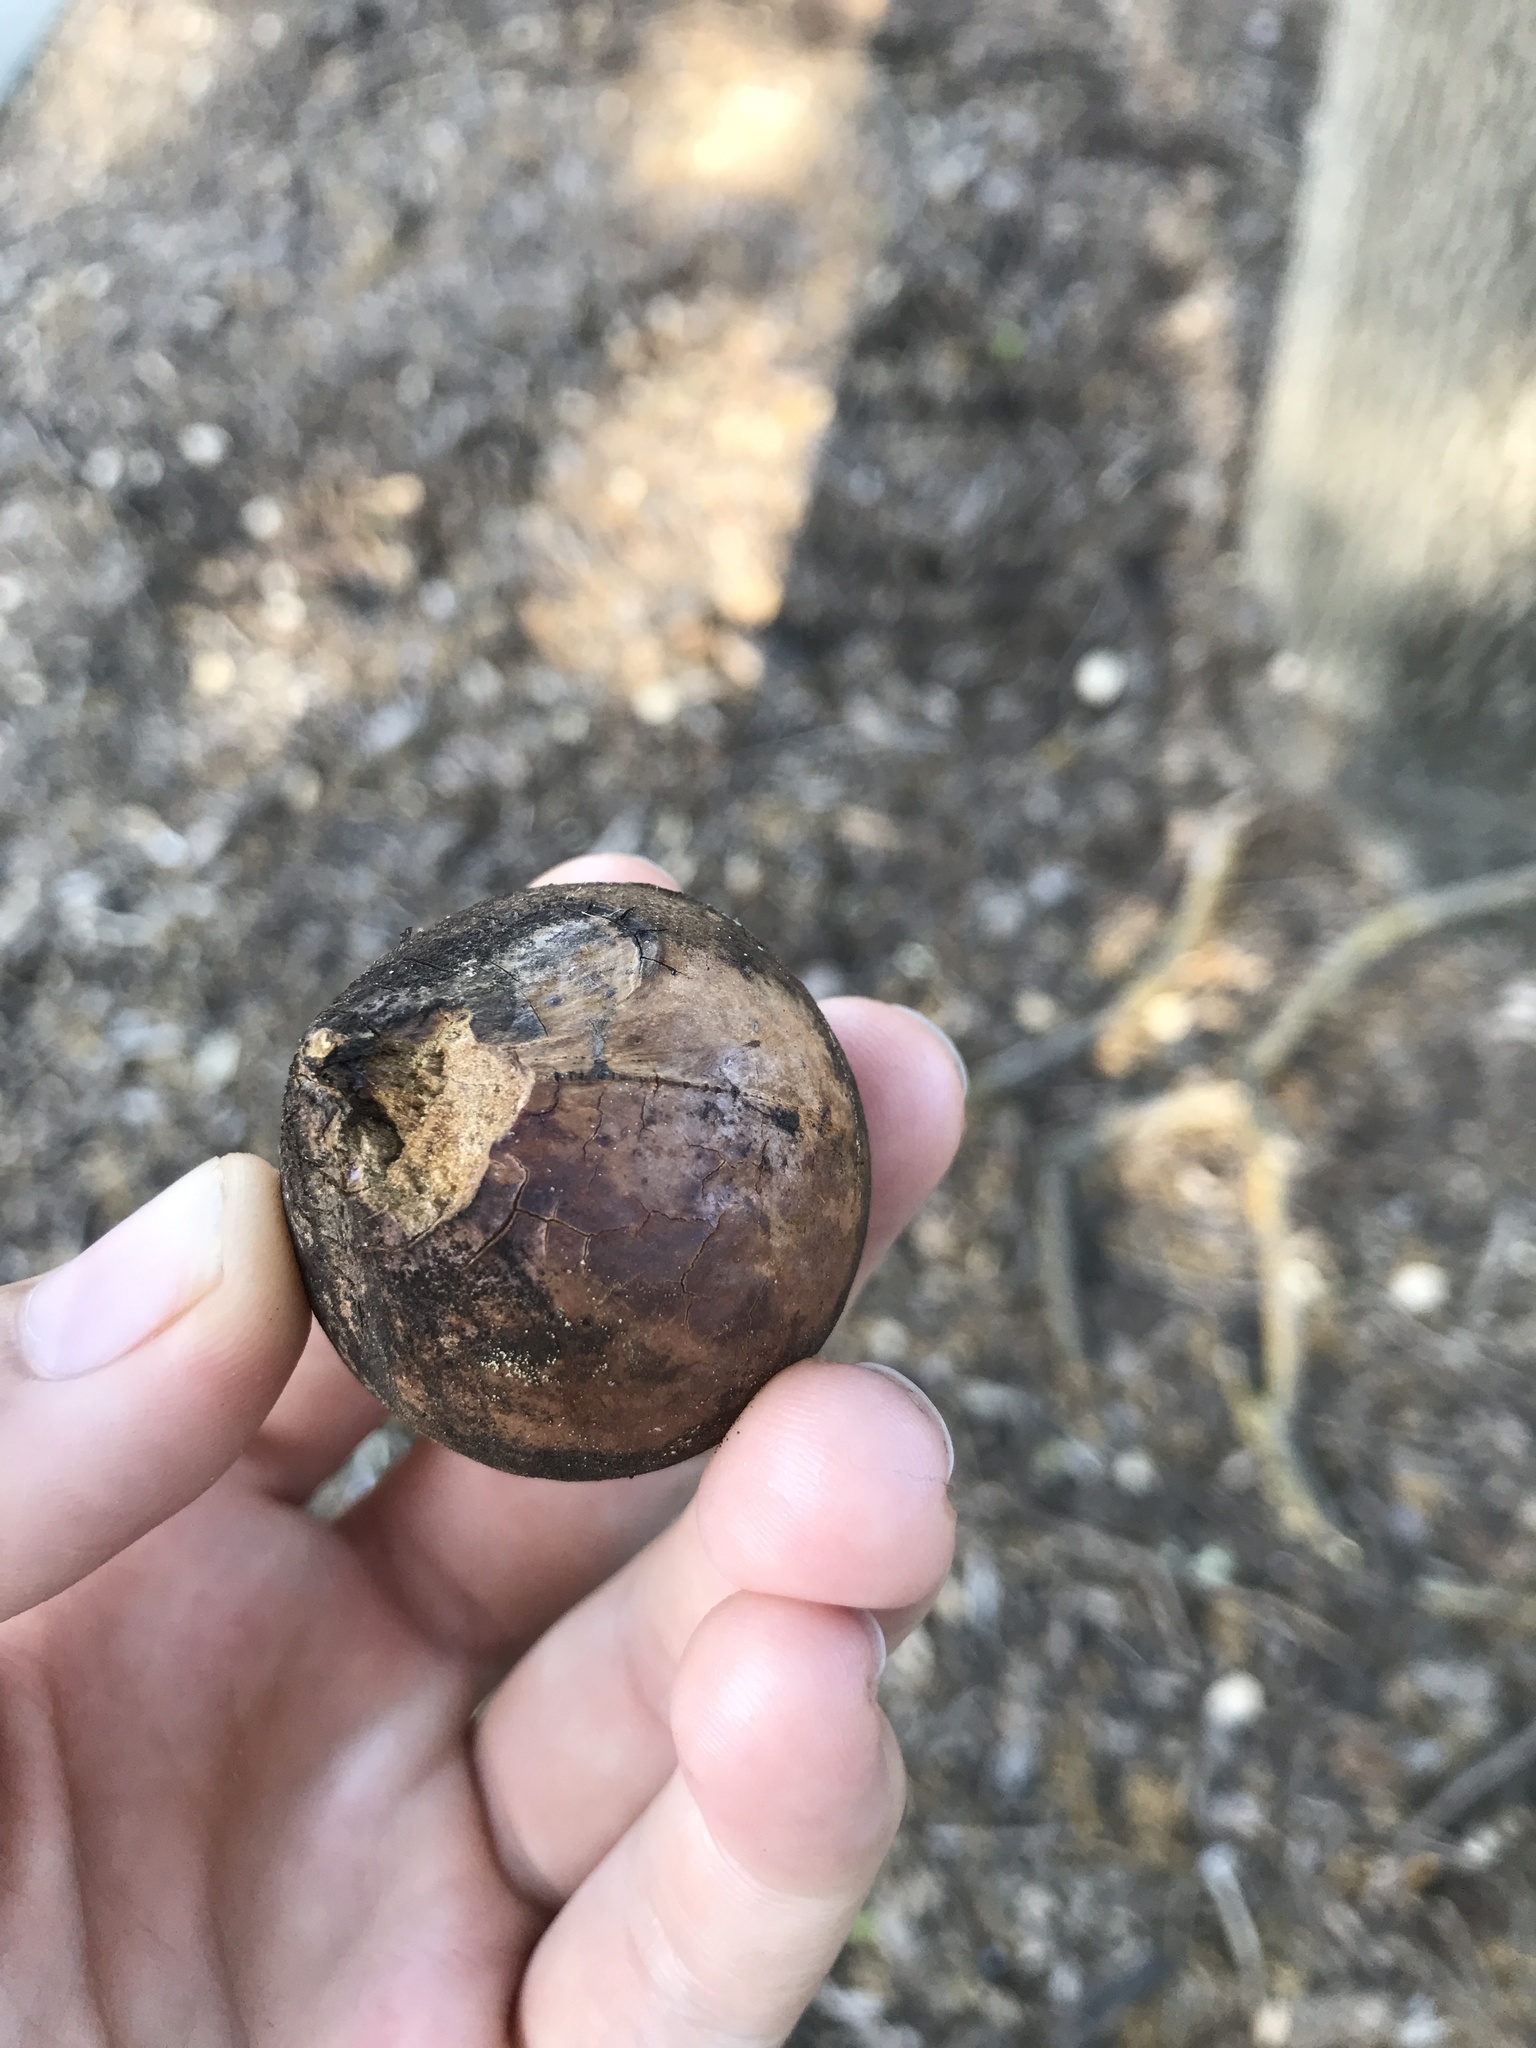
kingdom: Animalia
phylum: Arthropoda
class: Insecta
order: Hymenoptera
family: Cynipidae
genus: Andricus
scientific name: Andricus quercuscalifornicus
